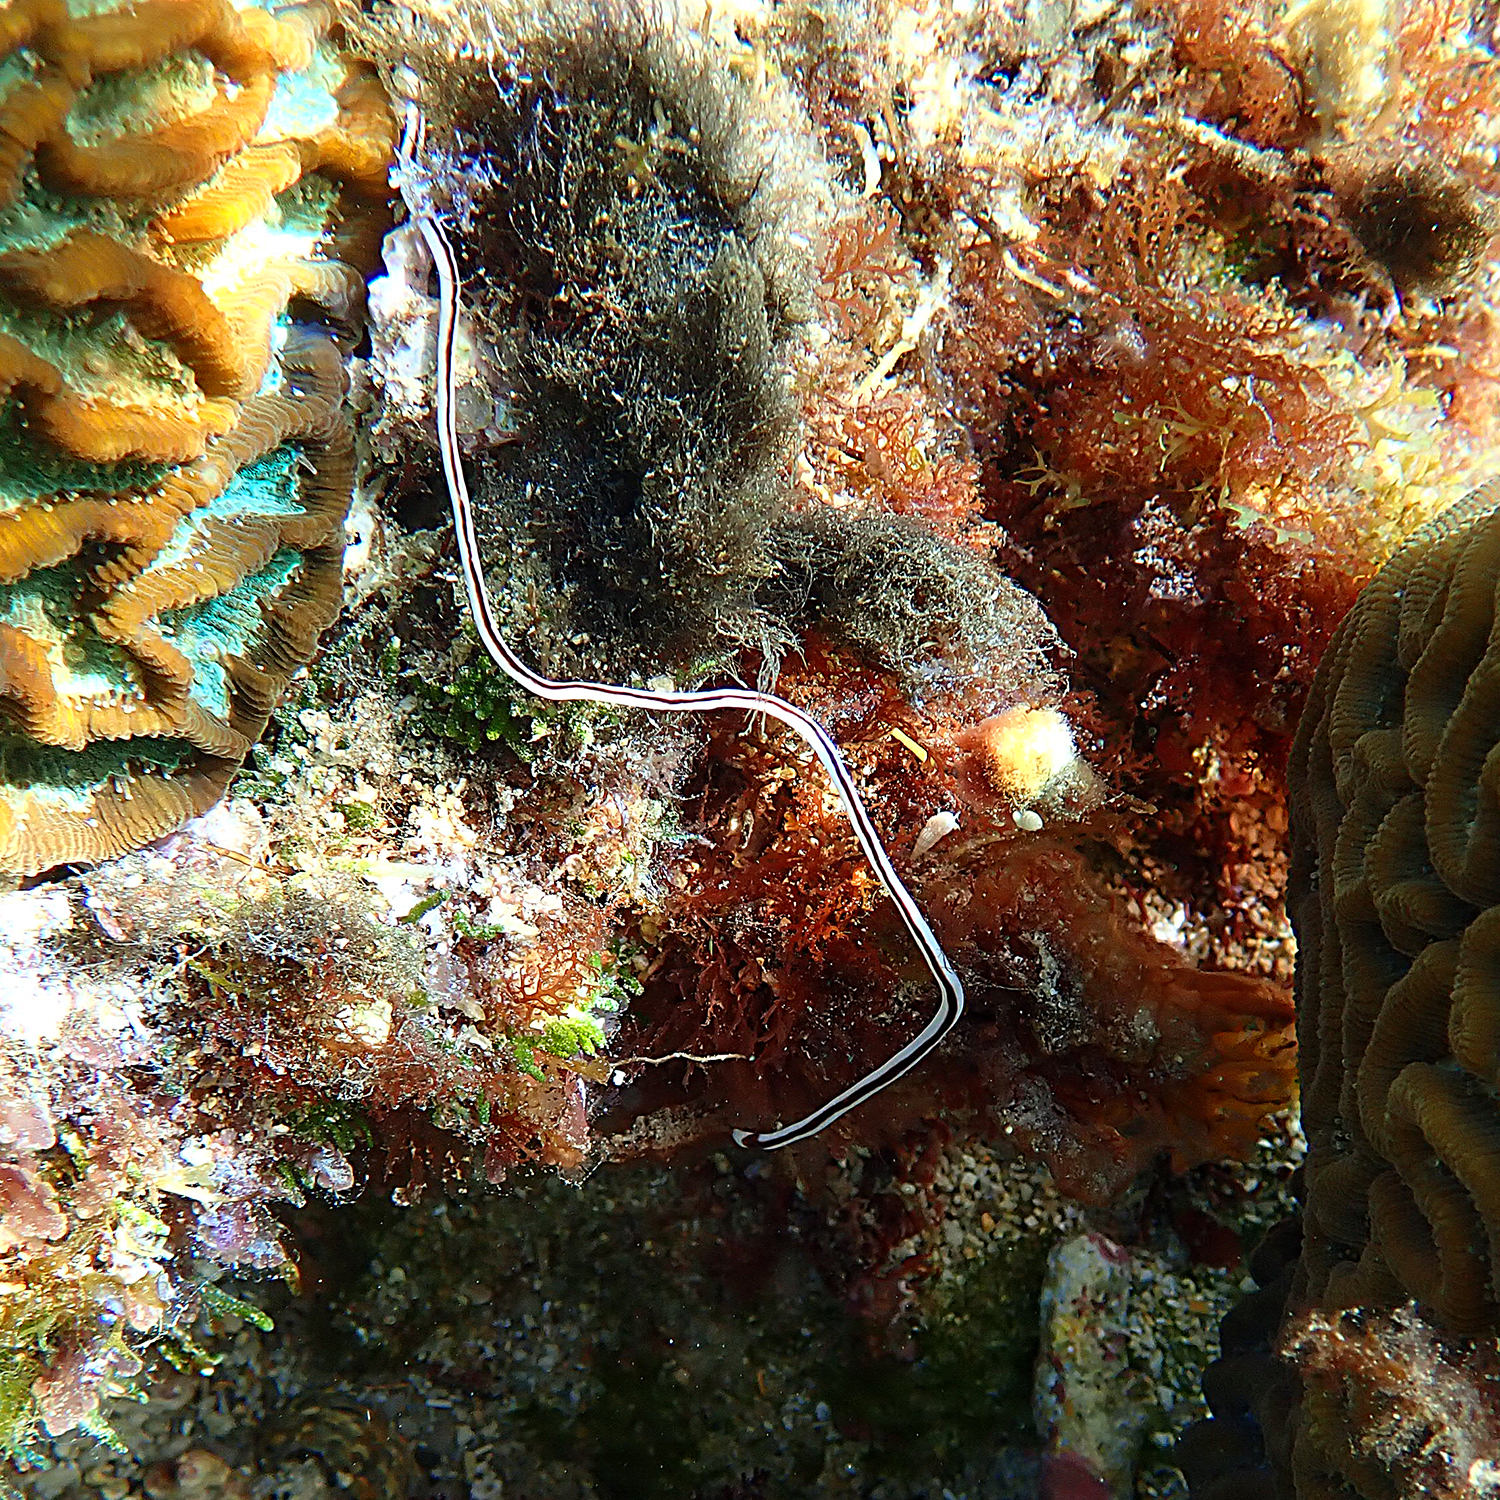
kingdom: Animalia
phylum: Nemertea
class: Pilidiophora
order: Heteronemertea
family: Valenciniidae
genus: Baseodiscus
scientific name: Baseodiscus hemprichii
